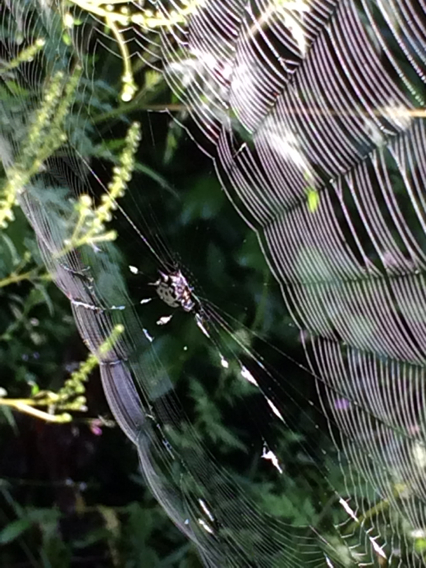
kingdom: Animalia
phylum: Arthropoda
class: Arachnida
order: Araneae
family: Araneidae
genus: Gasteracantha
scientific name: Gasteracantha cancriformis
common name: Orb weavers
